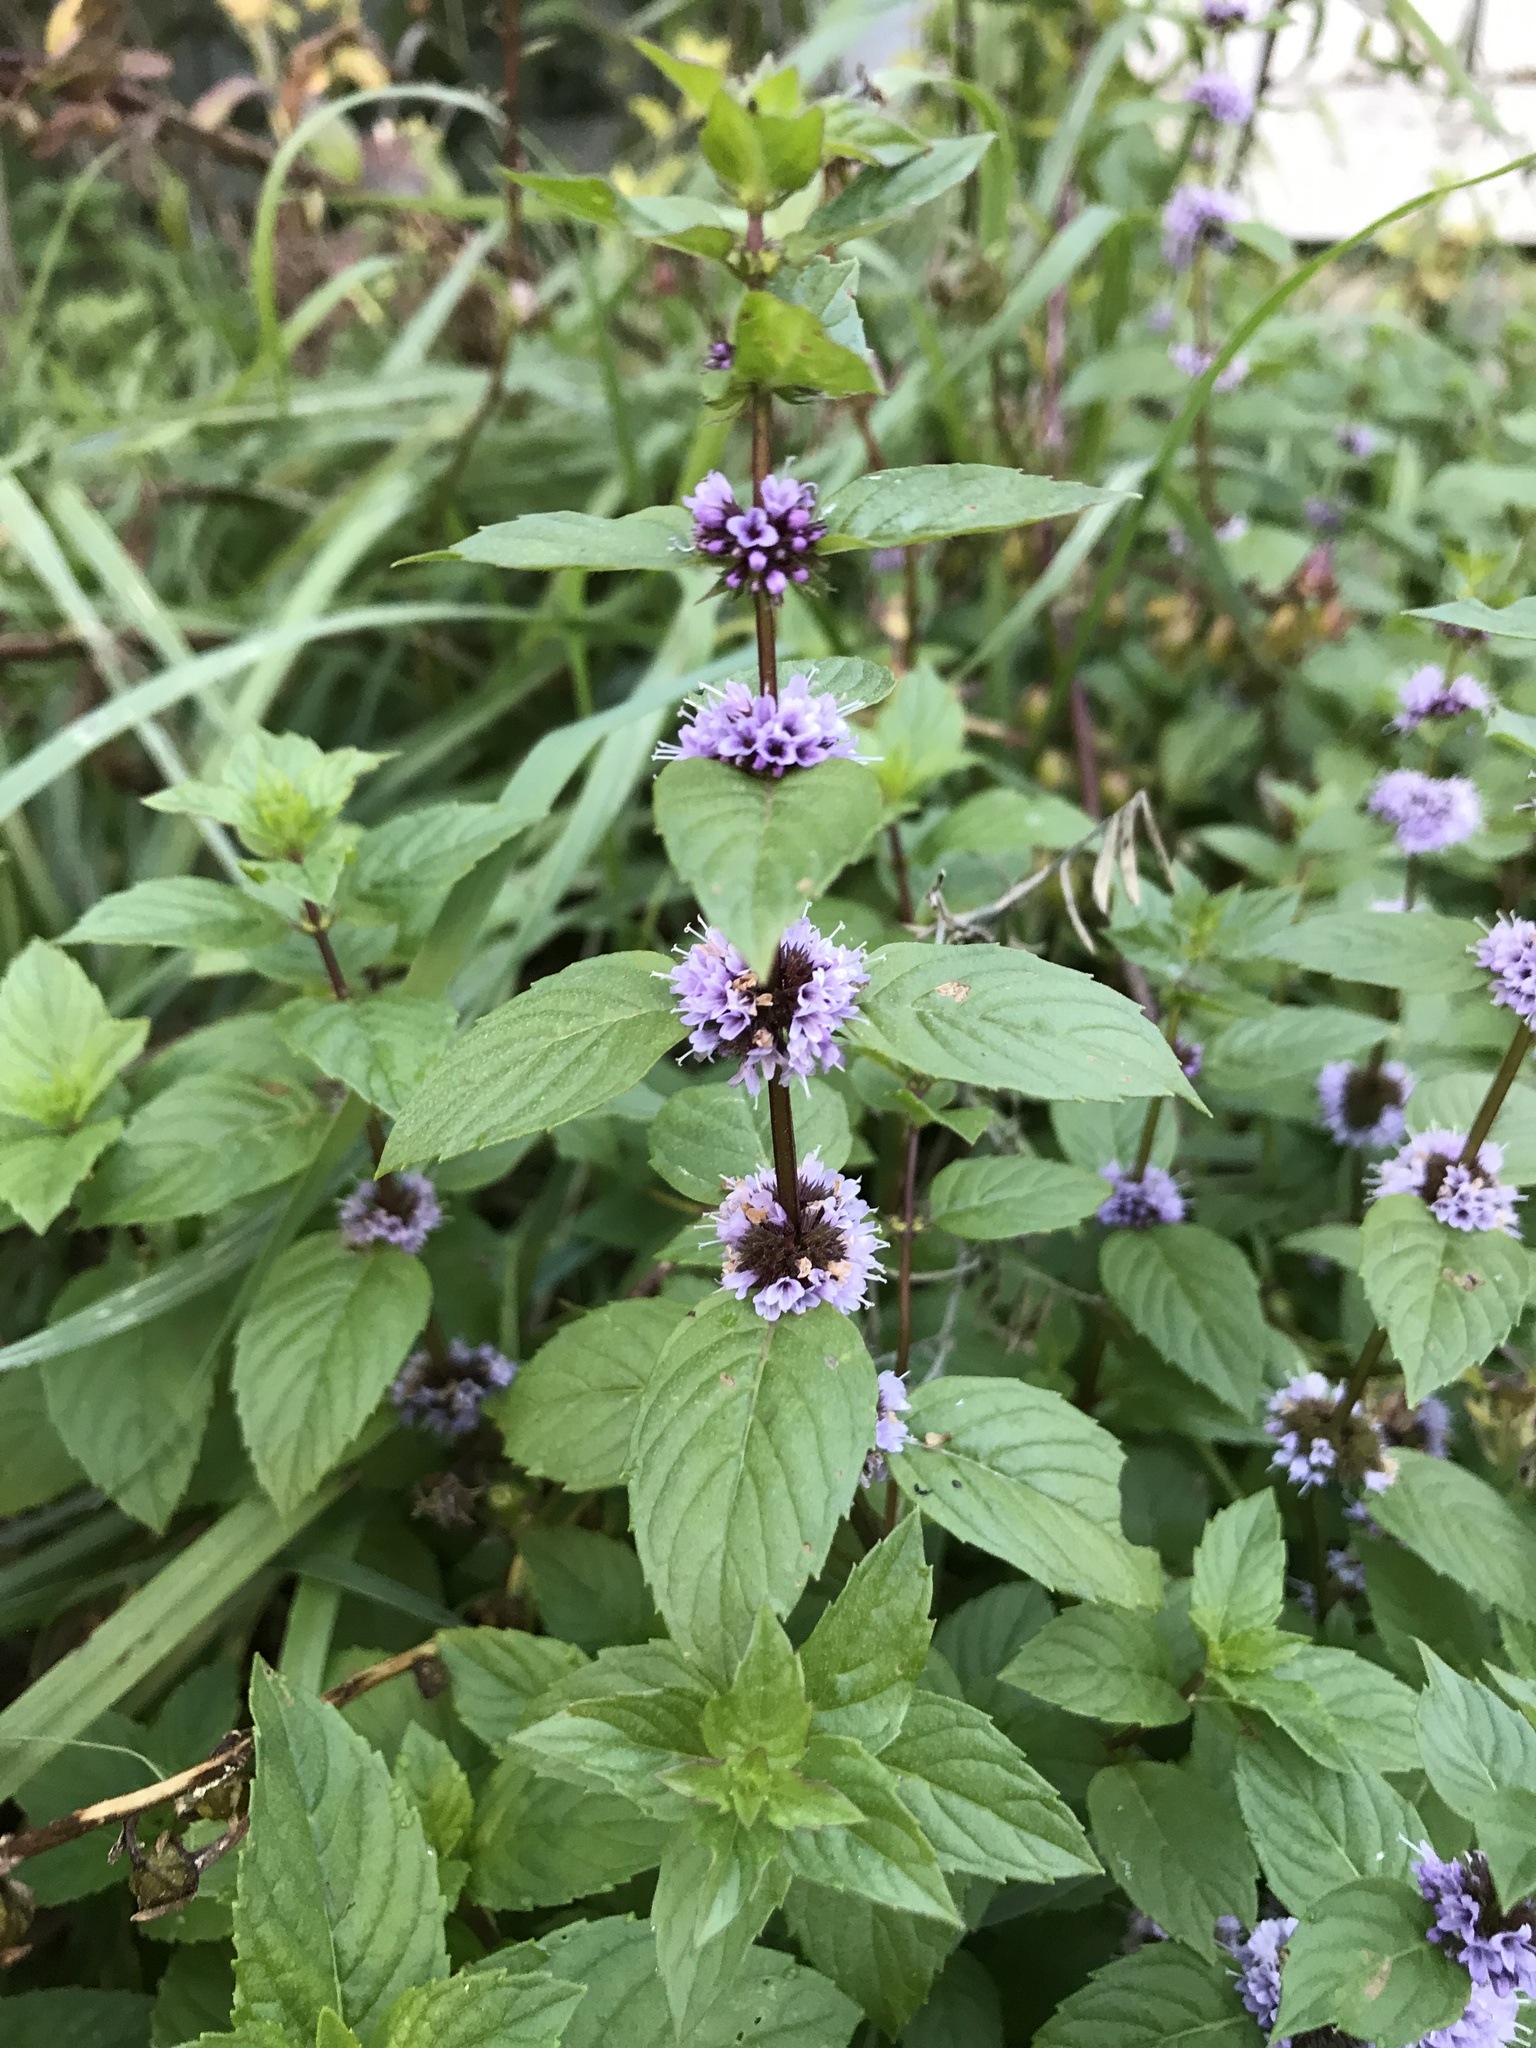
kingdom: Plantae
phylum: Tracheophyta
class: Magnoliopsida
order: Lamiales
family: Lamiaceae
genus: Mentha
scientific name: Mentha arvensis
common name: Corn mint
